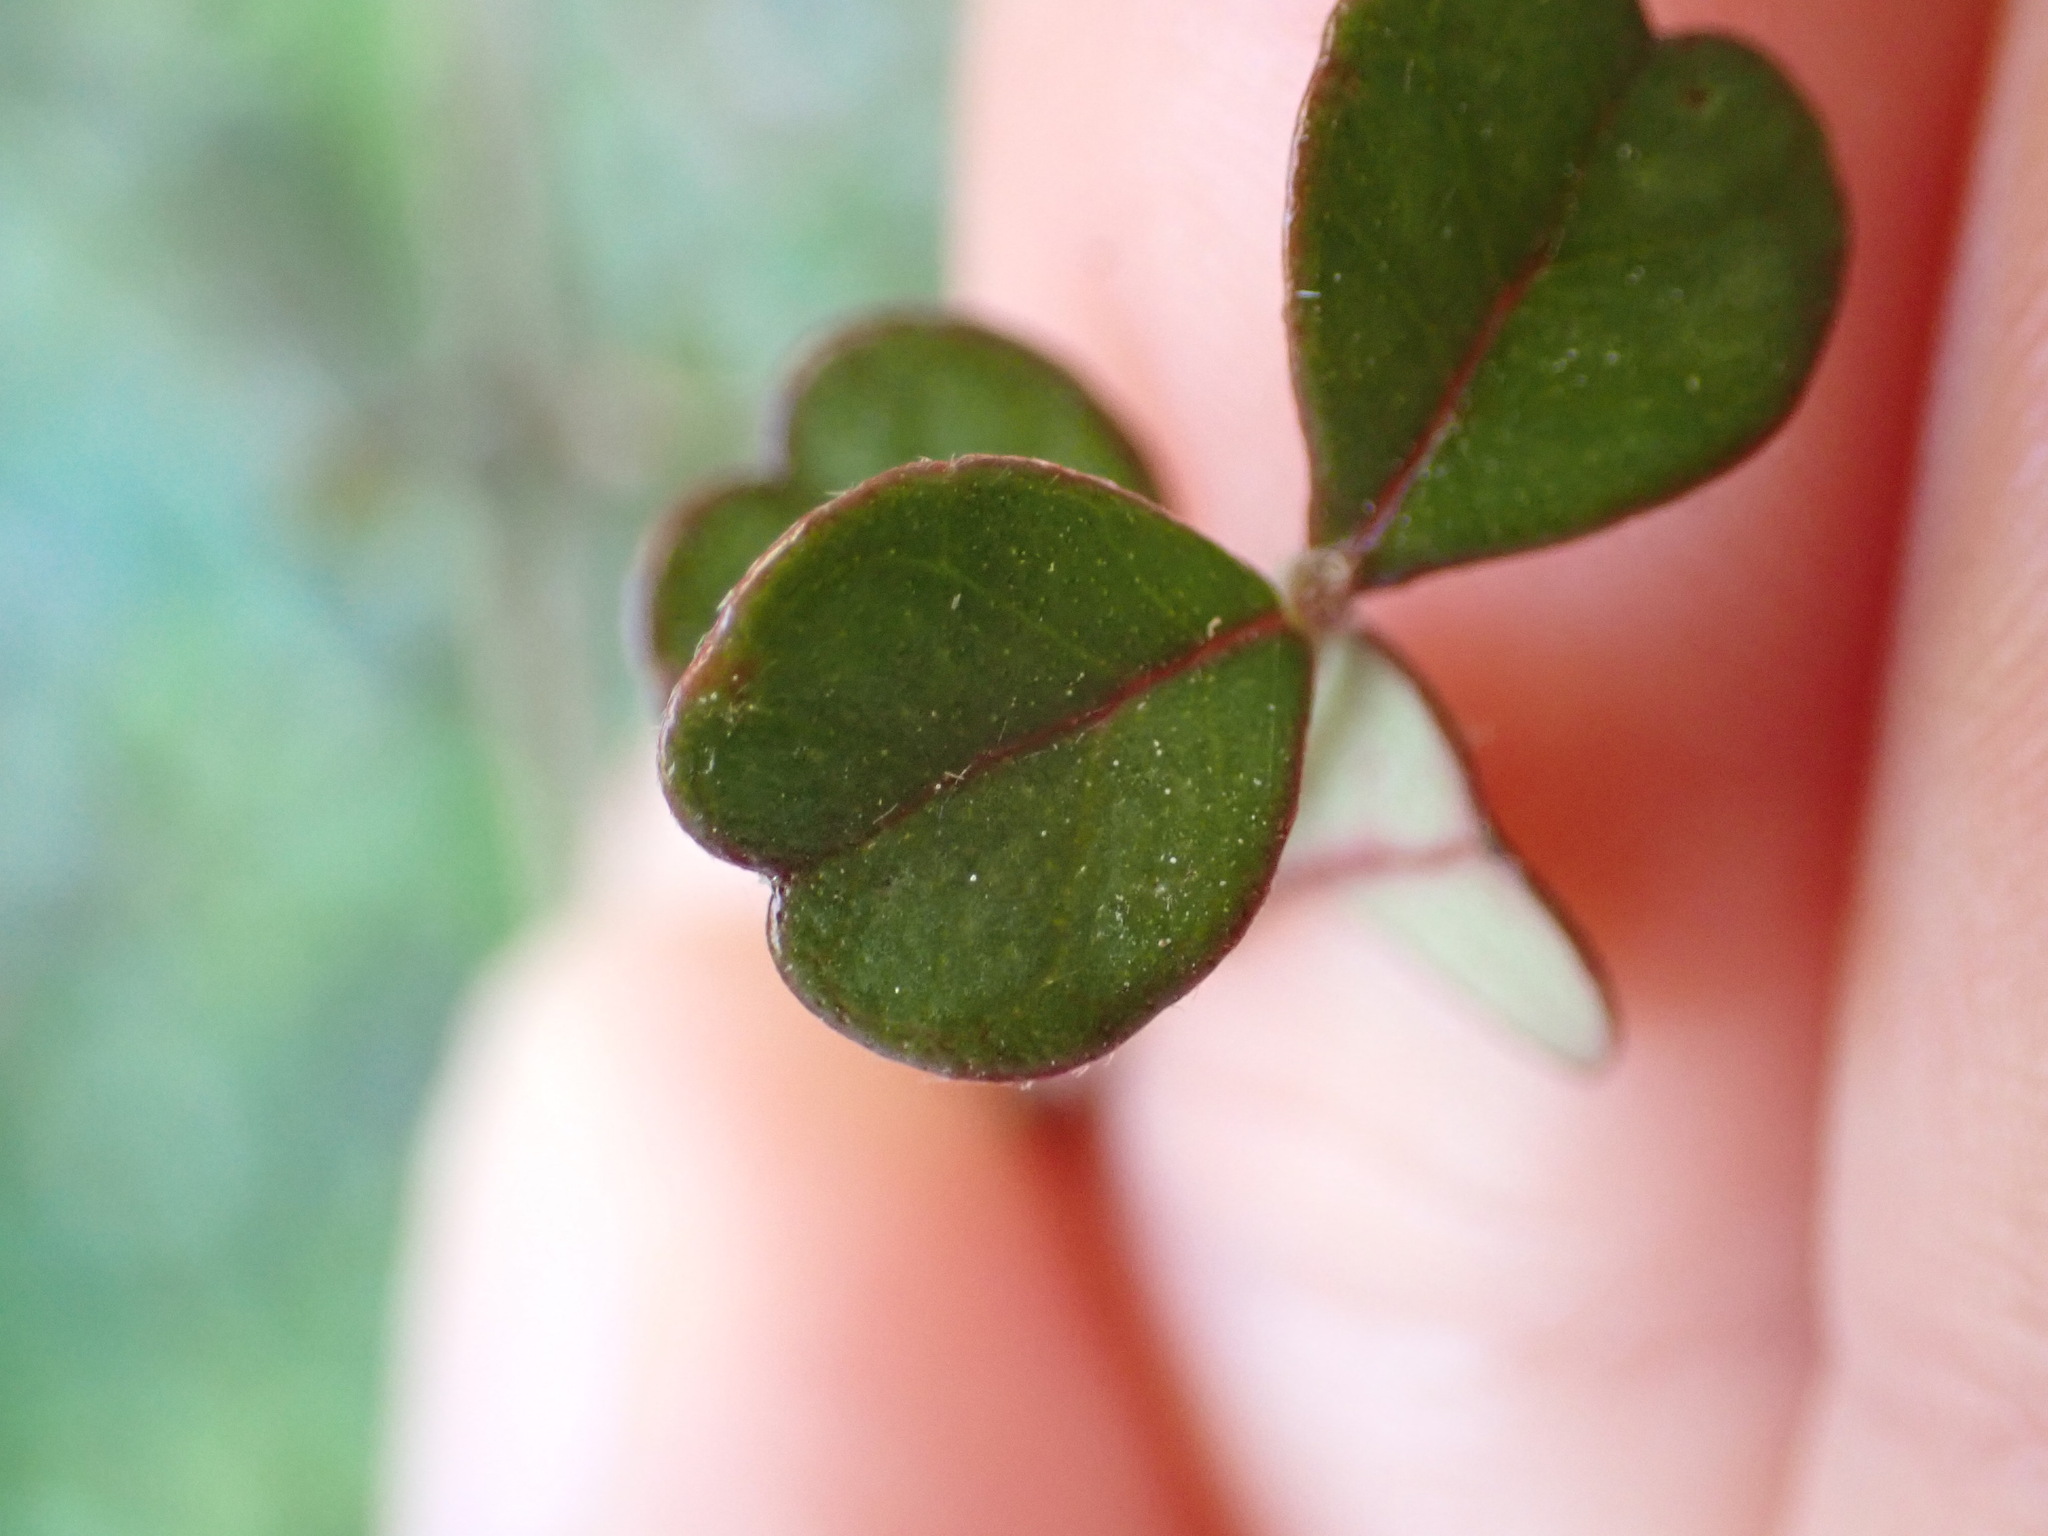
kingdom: Plantae
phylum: Tracheophyta
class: Magnoliopsida
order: Myrtales
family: Myrtaceae
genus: Lophomyrtus
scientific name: Lophomyrtus obcordata
